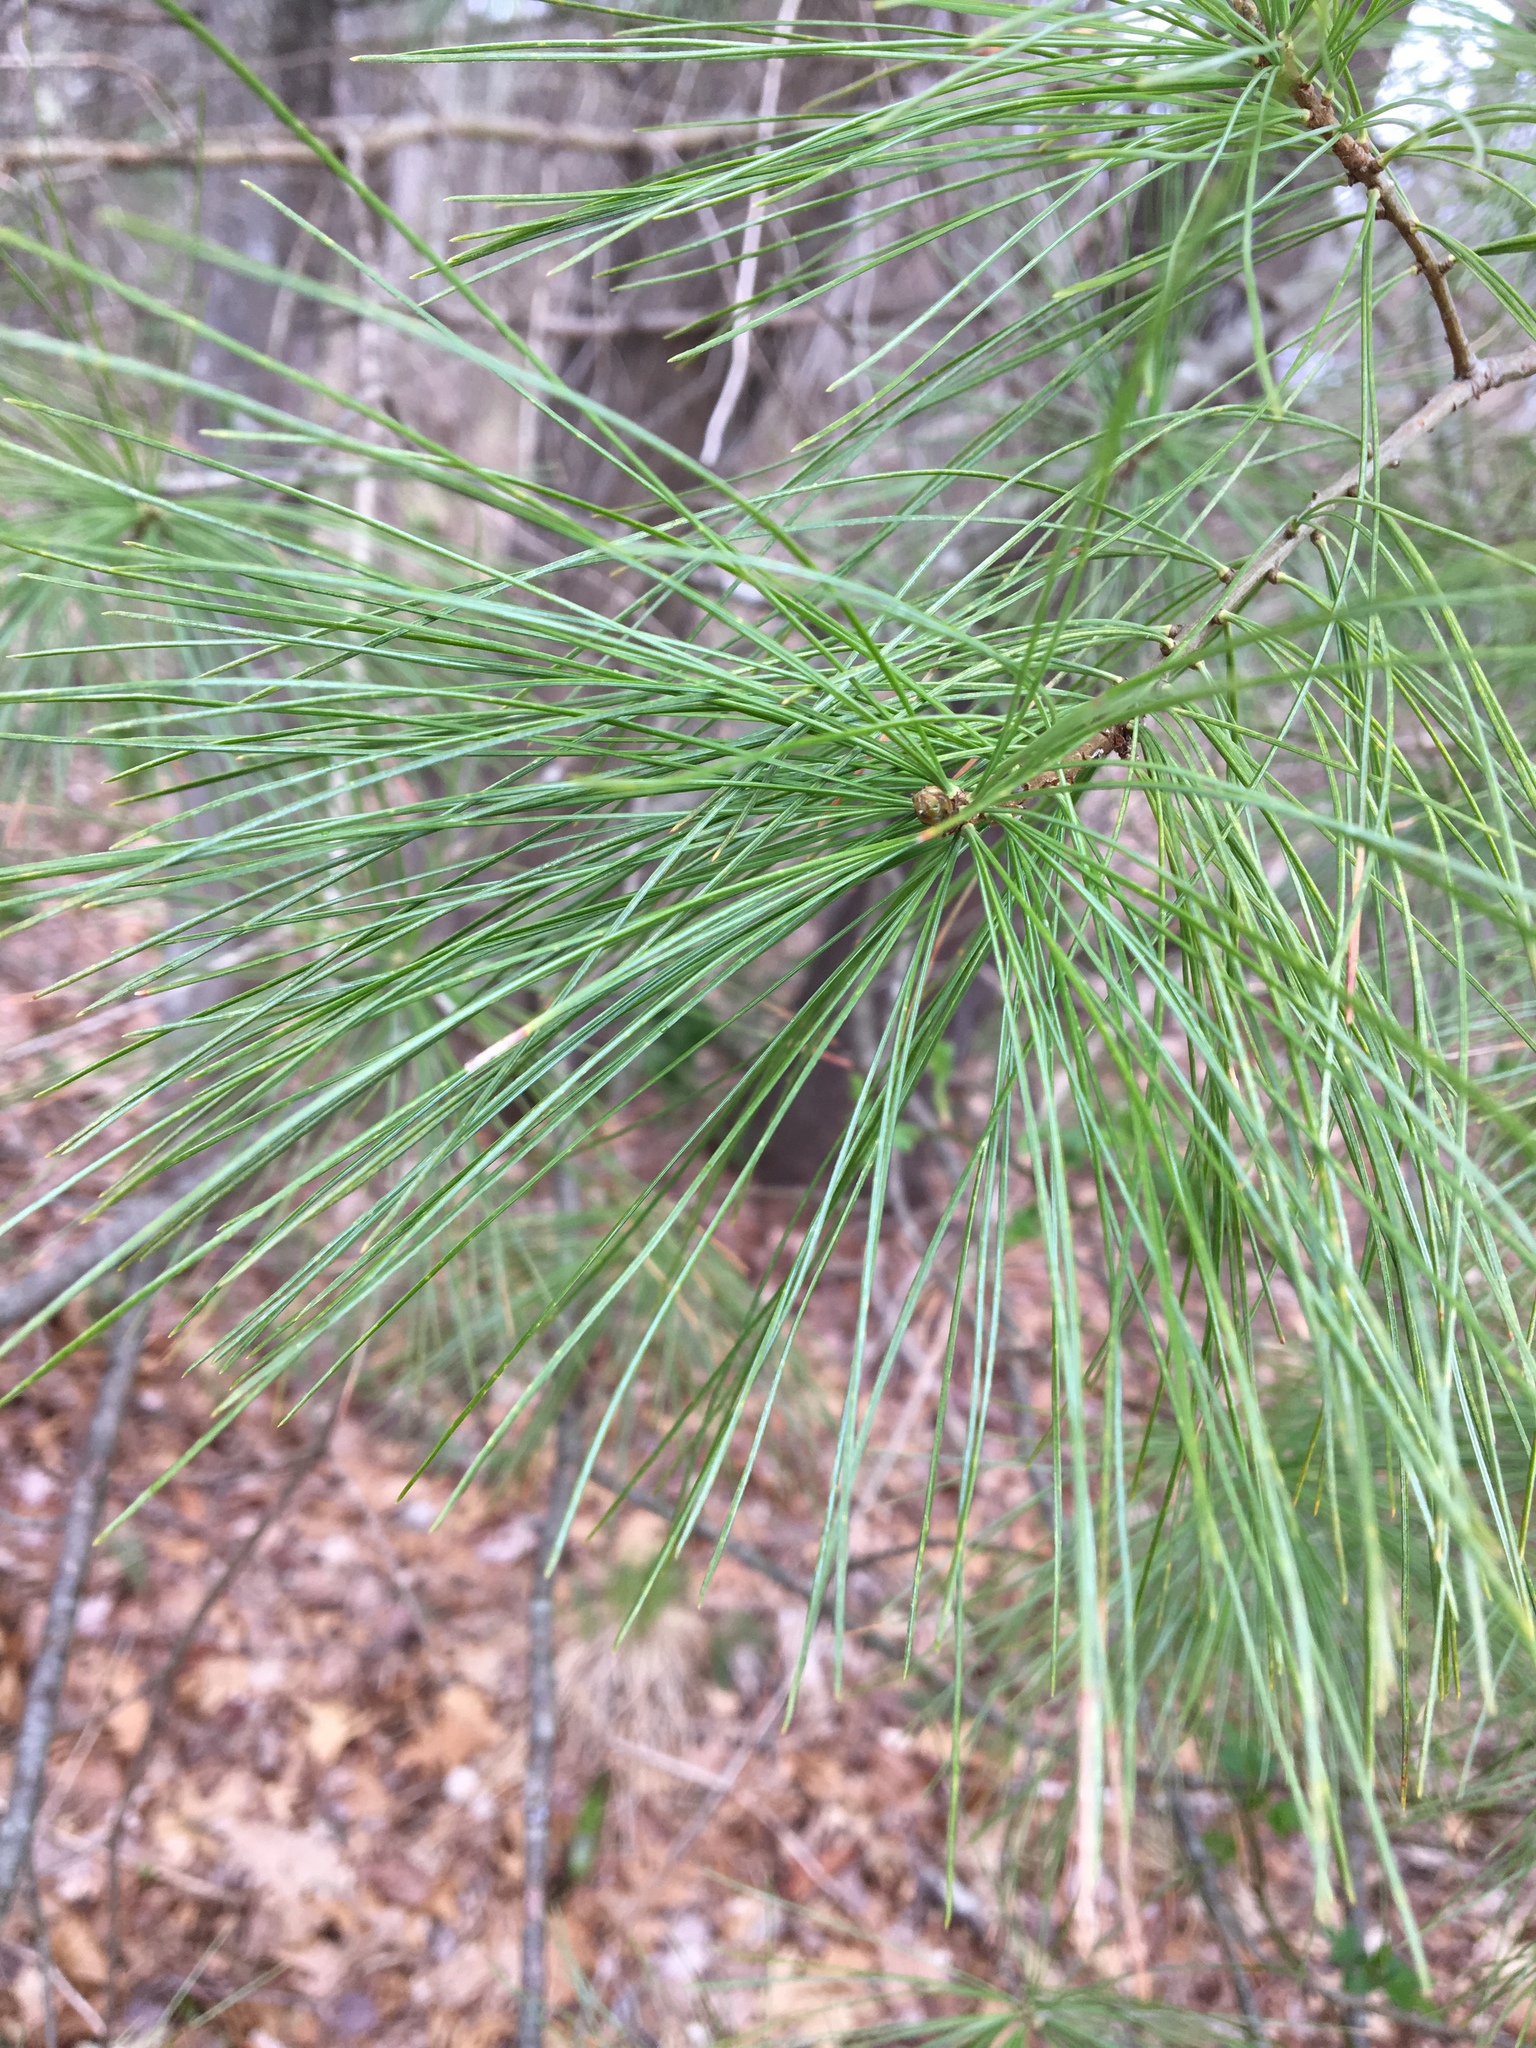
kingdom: Plantae
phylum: Tracheophyta
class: Pinopsida
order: Pinales
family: Pinaceae
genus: Pinus
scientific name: Pinus strobus
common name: Weymouth pine
